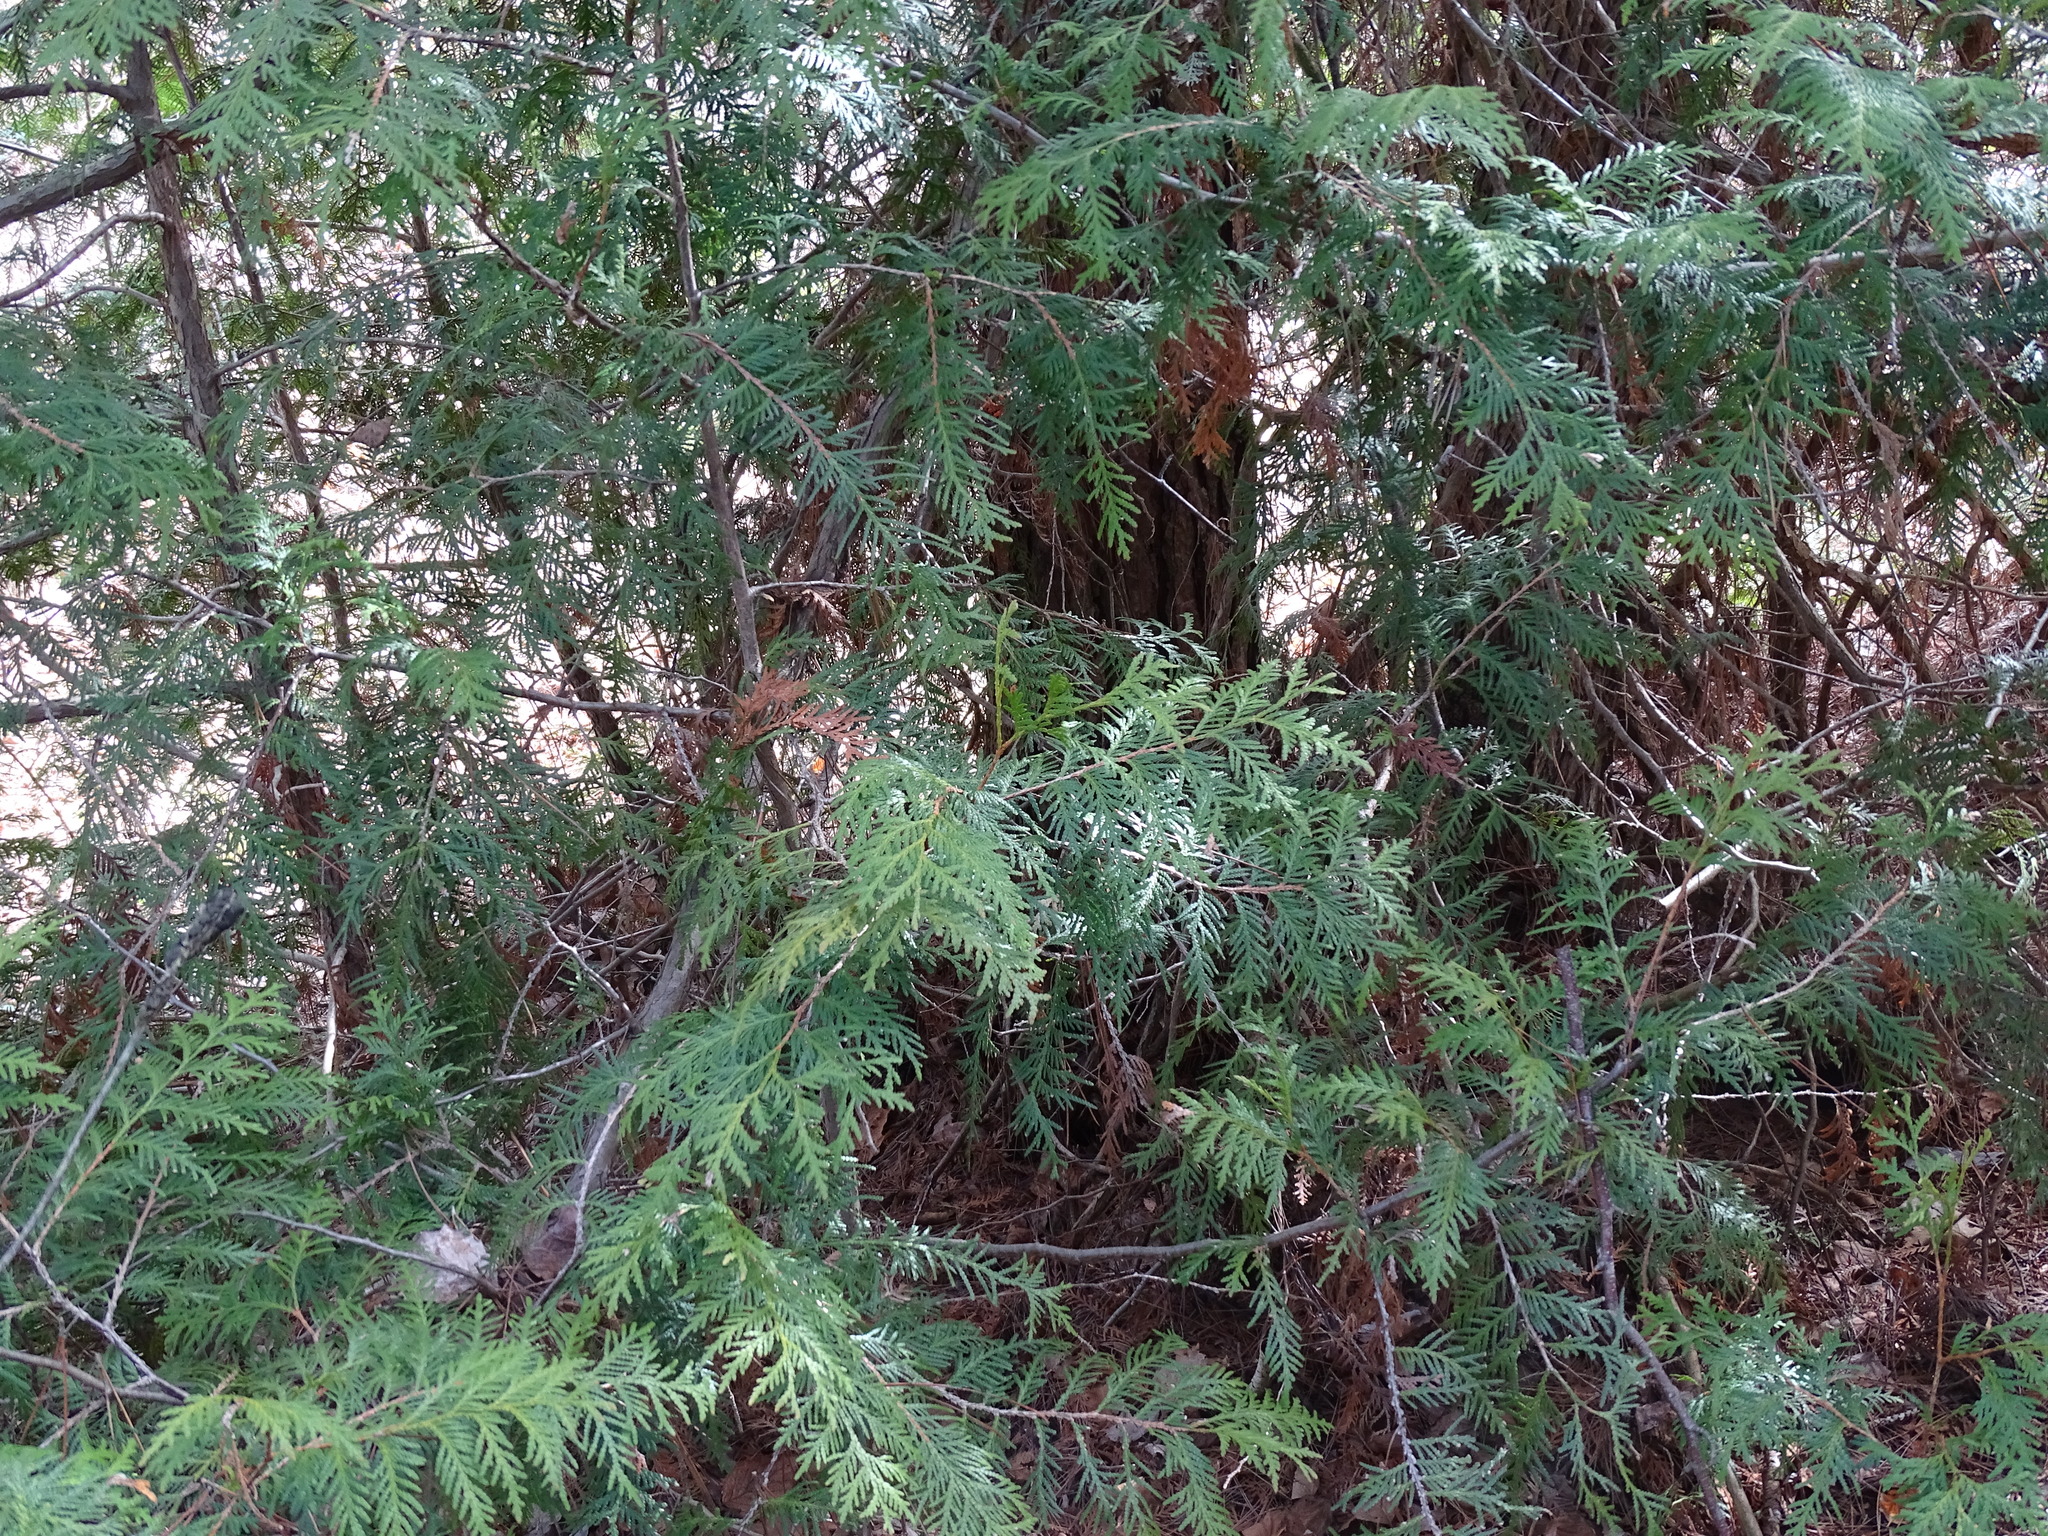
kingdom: Plantae
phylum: Tracheophyta
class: Pinopsida
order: Pinales
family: Cupressaceae
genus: Thuja
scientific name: Thuja occidentalis
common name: Northern white-cedar
